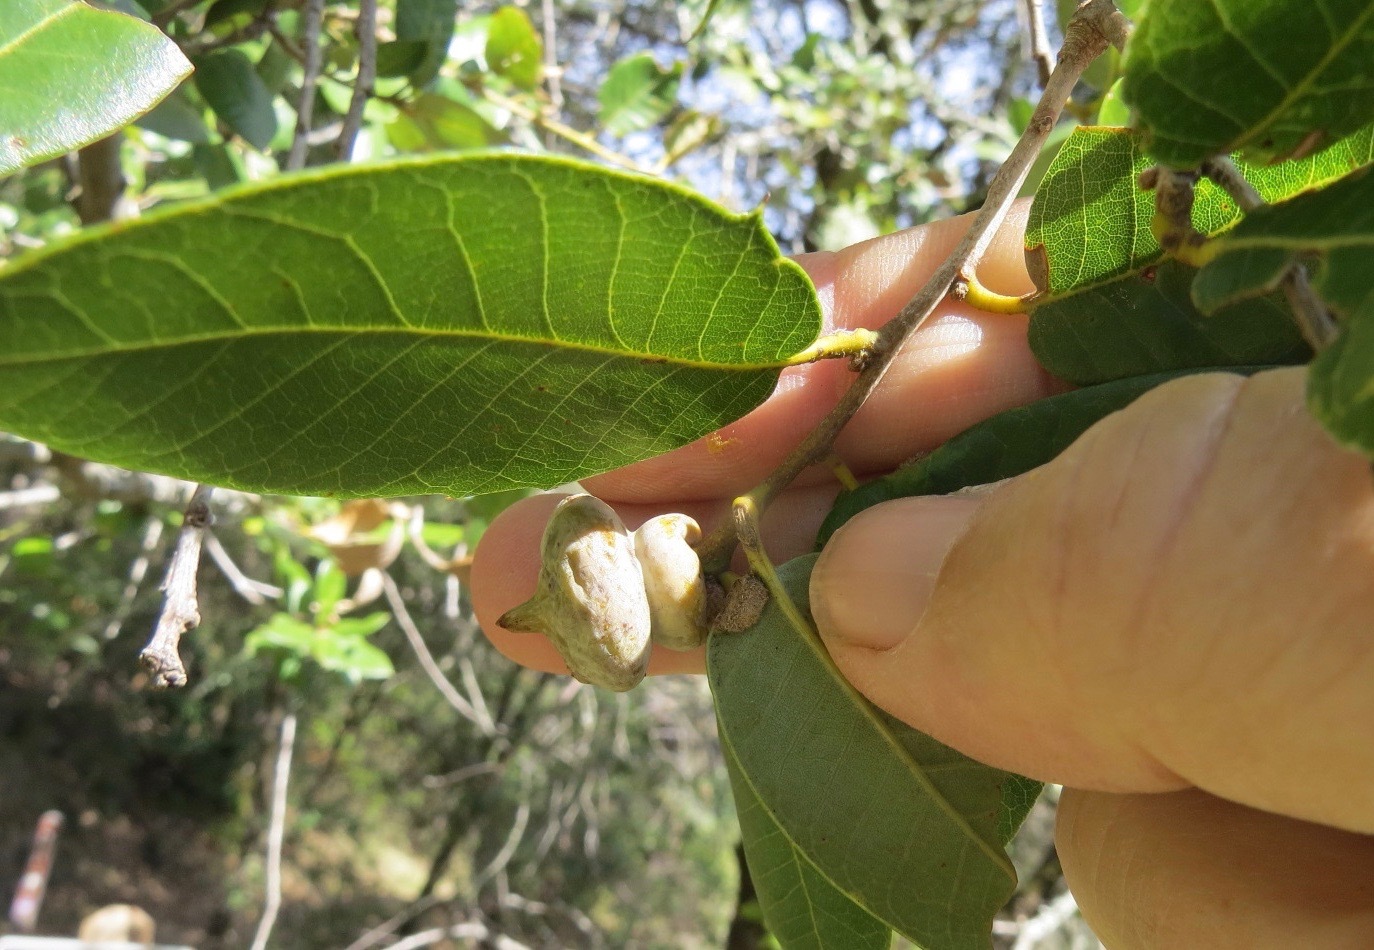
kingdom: Animalia
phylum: Arthropoda
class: Insecta
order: Hymenoptera
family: Cynipidae
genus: Heteroecus
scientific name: Heteroecus
